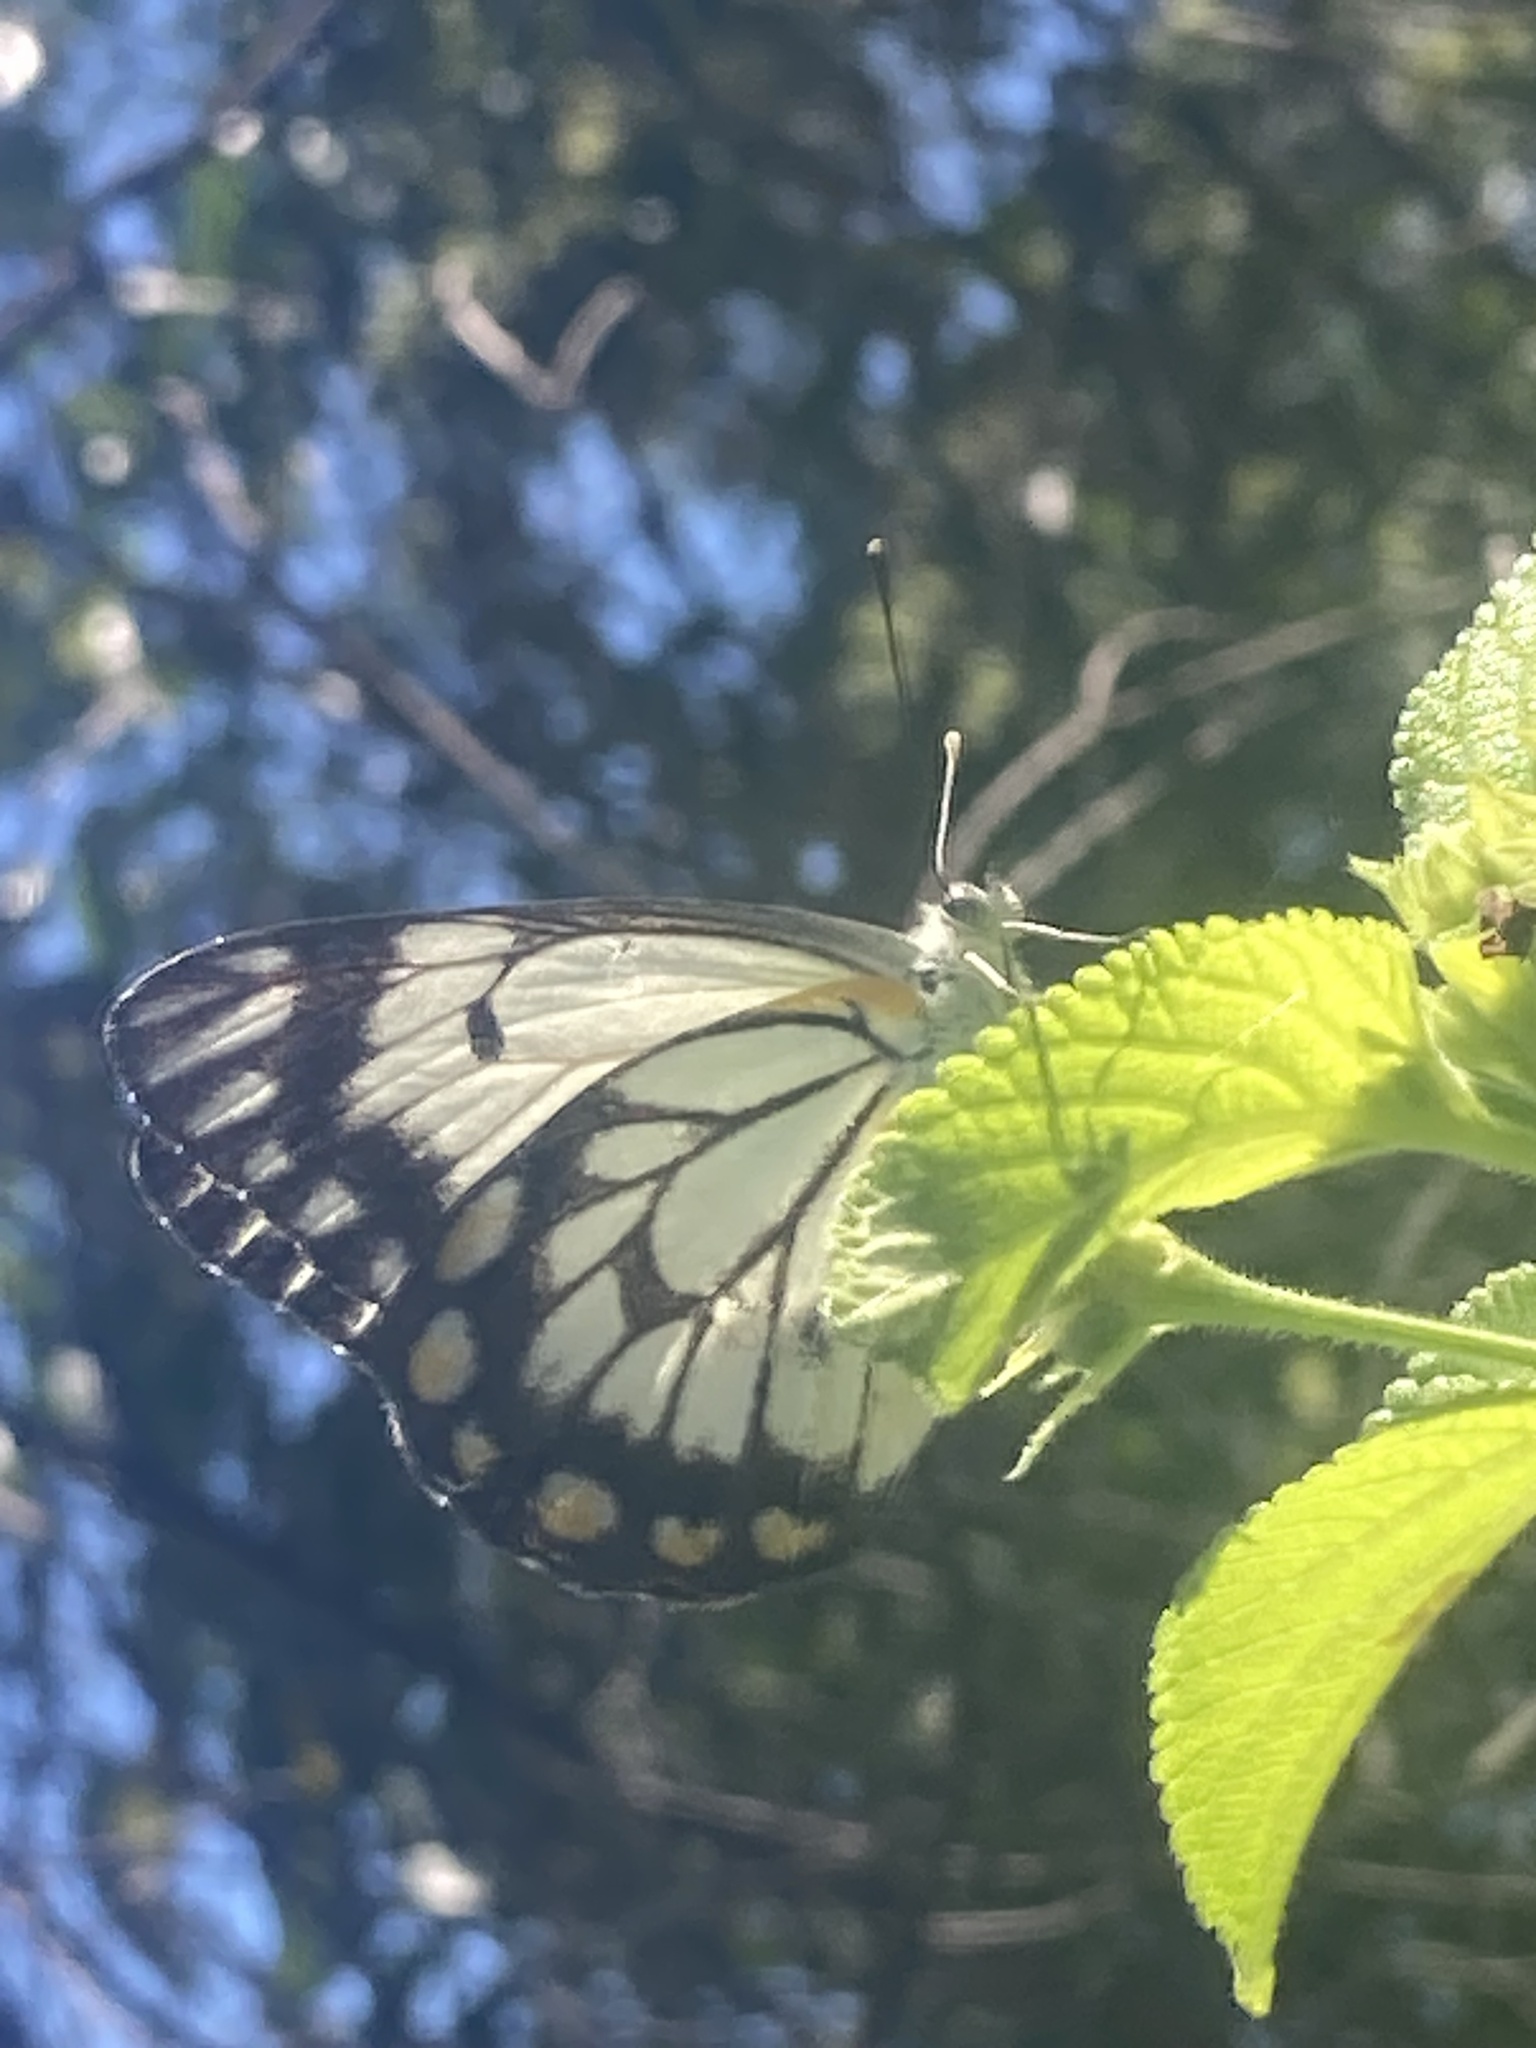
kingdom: Animalia
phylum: Arthropoda
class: Insecta
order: Lepidoptera
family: Pieridae
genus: Belenois
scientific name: Belenois java
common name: Caper white
